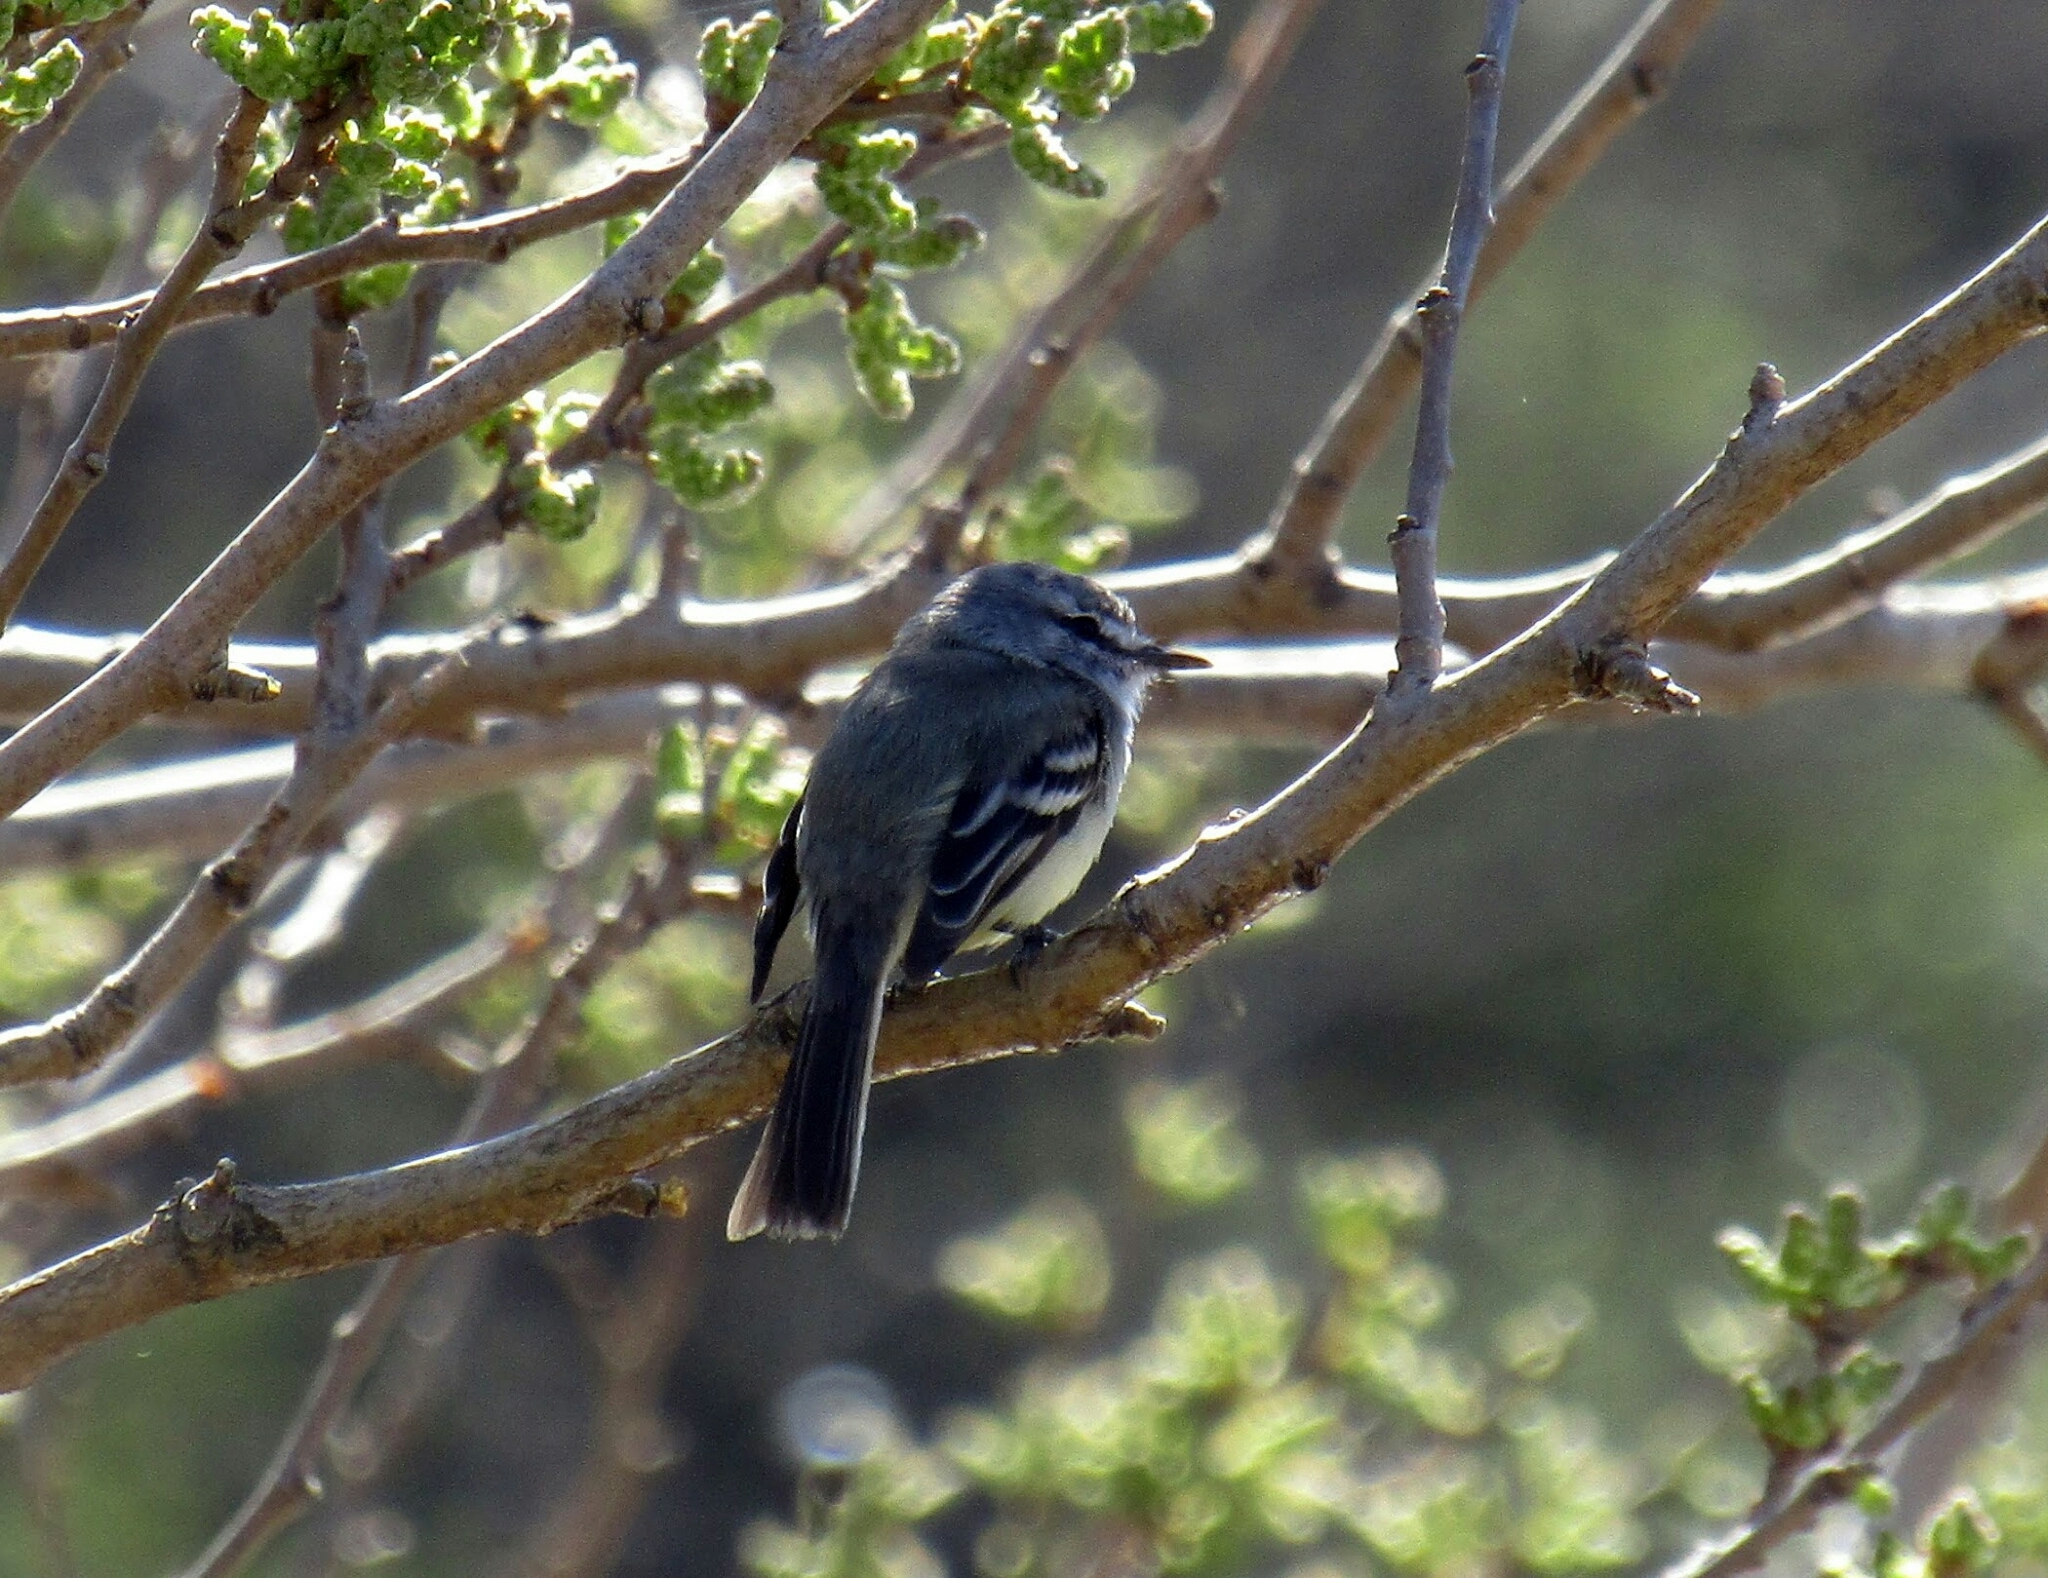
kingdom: Animalia
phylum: Chordata
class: Aves
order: Passeriformes
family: Tyrannidae
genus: Serpophaga
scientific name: Serpophaga subcristata
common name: White-crested tyrannulet
